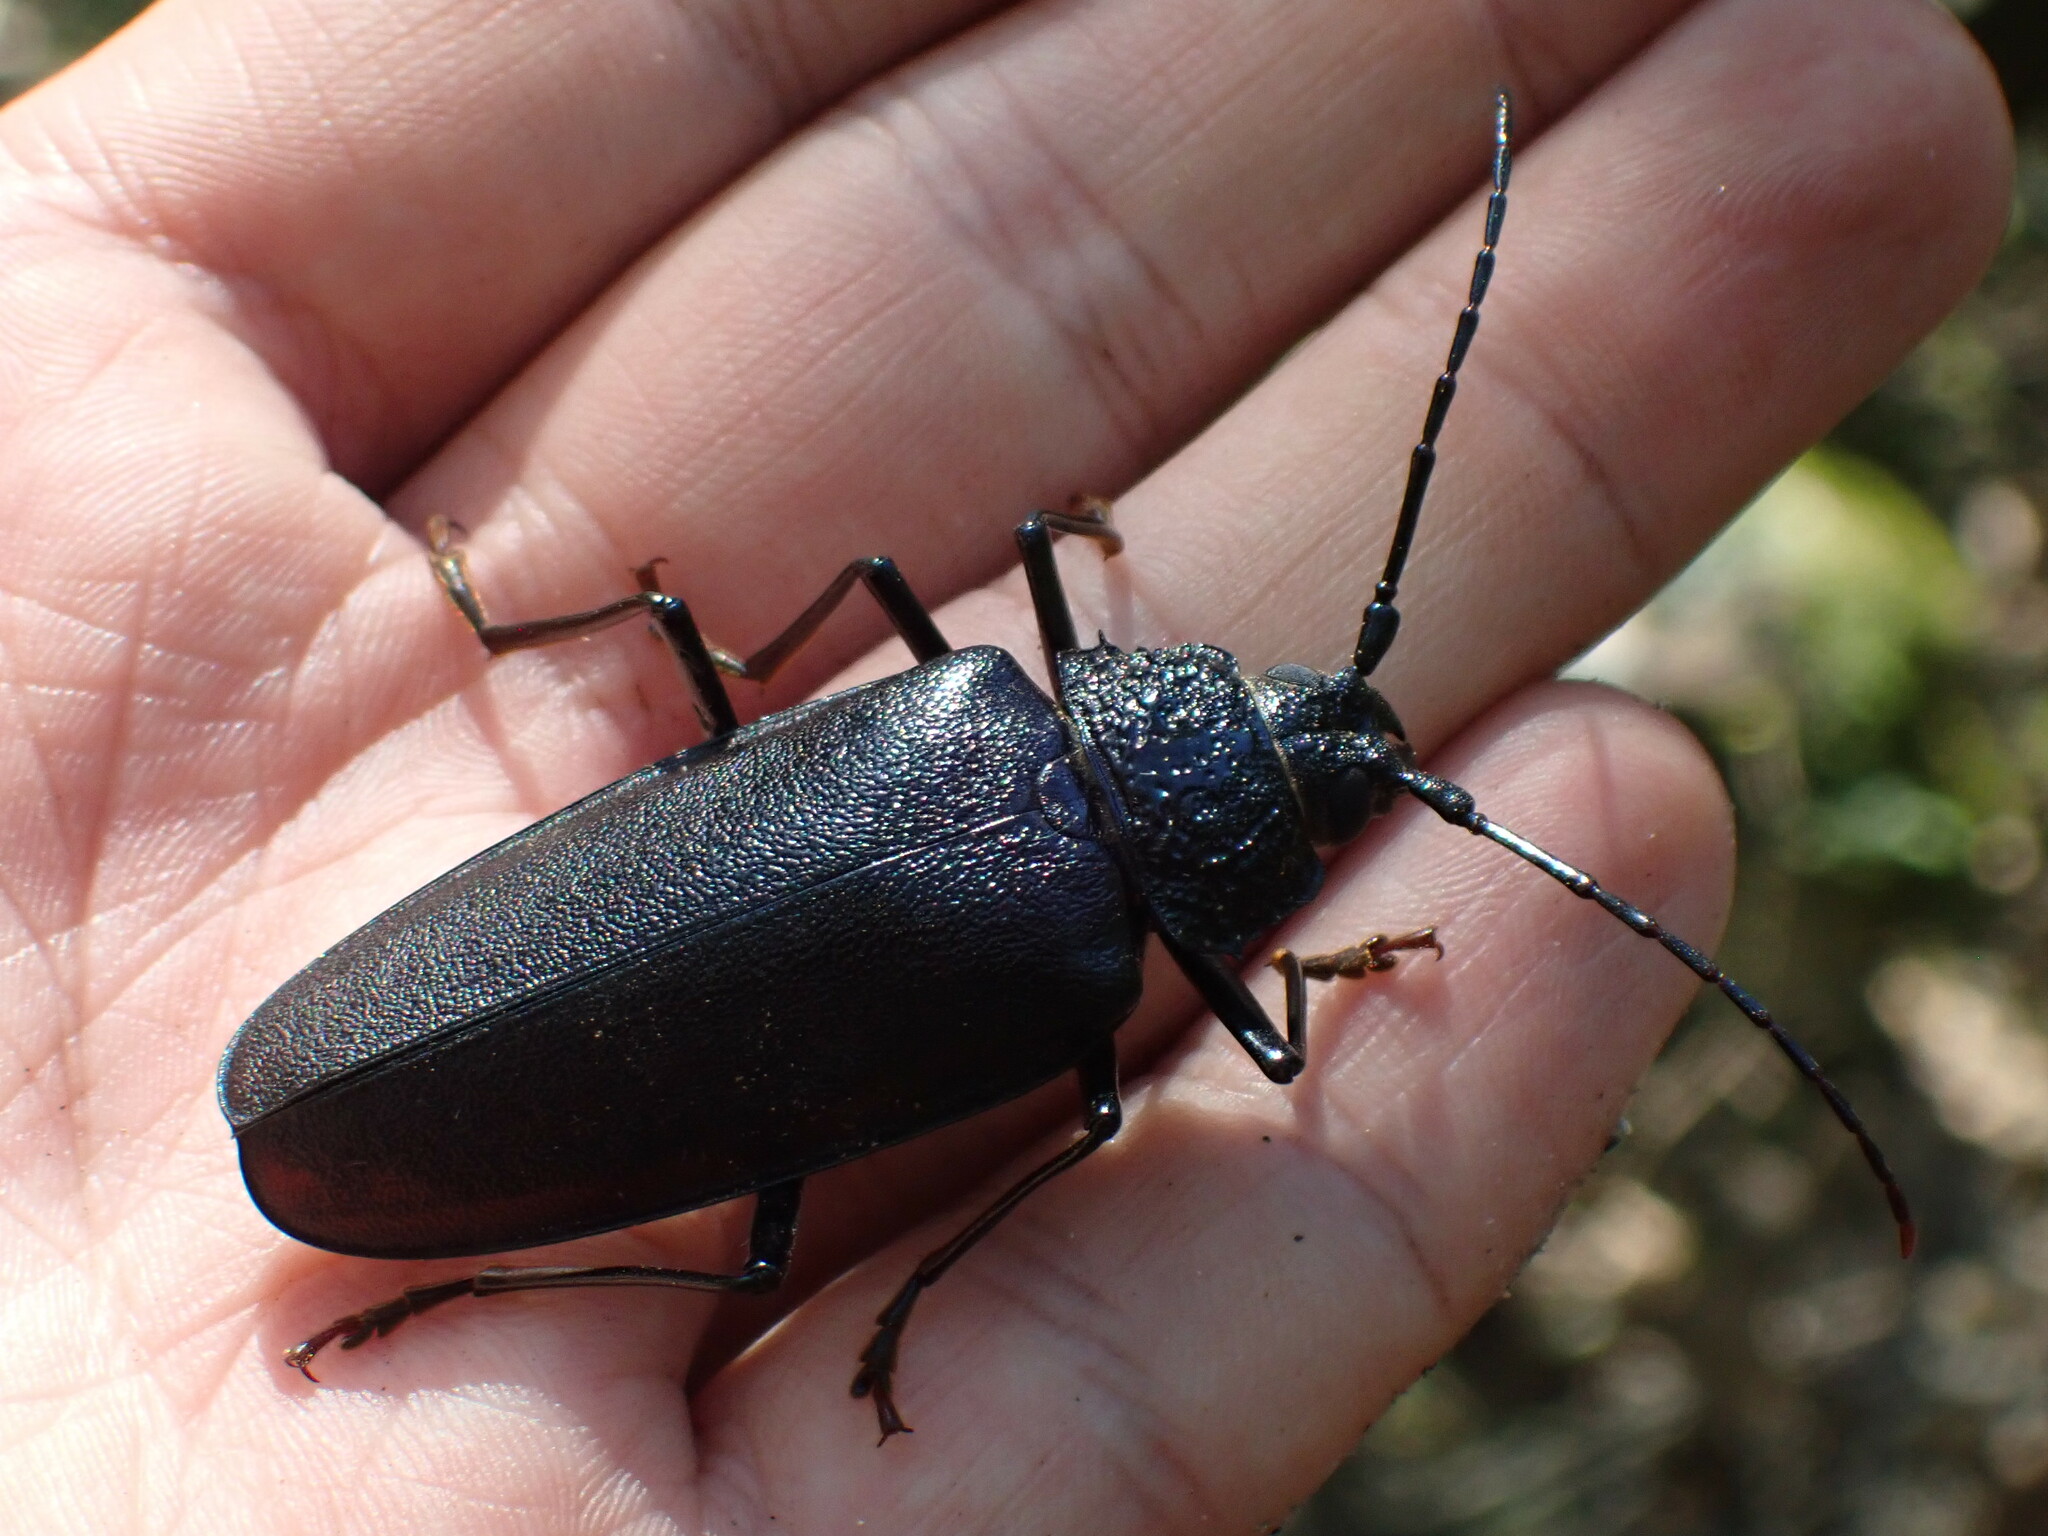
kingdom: Animalia
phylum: Arthropoda
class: Insecta
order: Coleoptera
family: Cerambycidae
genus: Ergates
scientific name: Ergates faber
